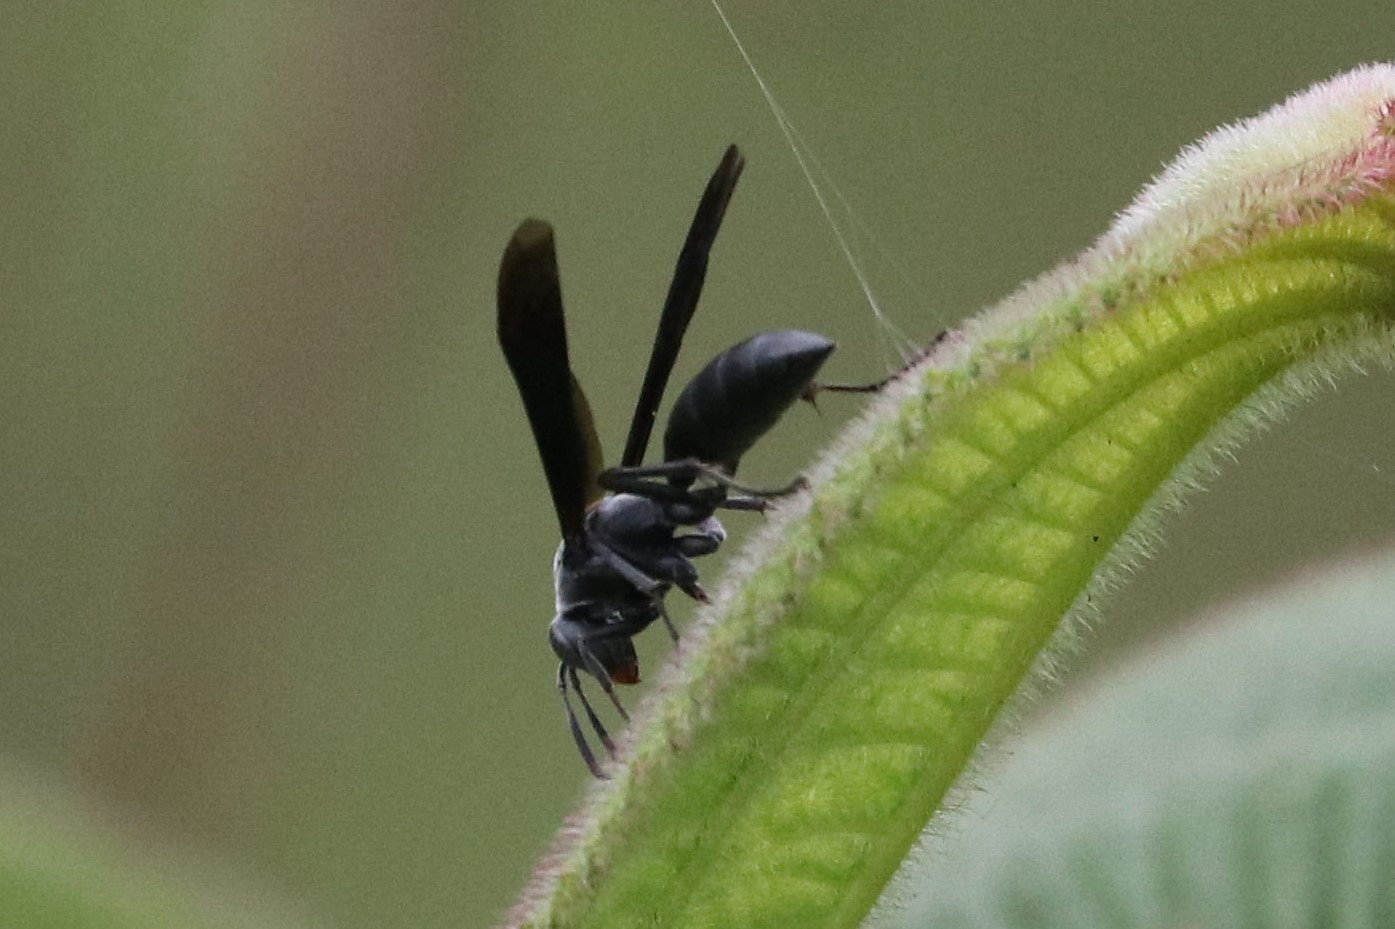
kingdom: Animalia
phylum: Arthropoda
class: Insecta
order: Hymenoptera
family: Eumenidae
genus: Polistes
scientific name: Polistes aterrimus
